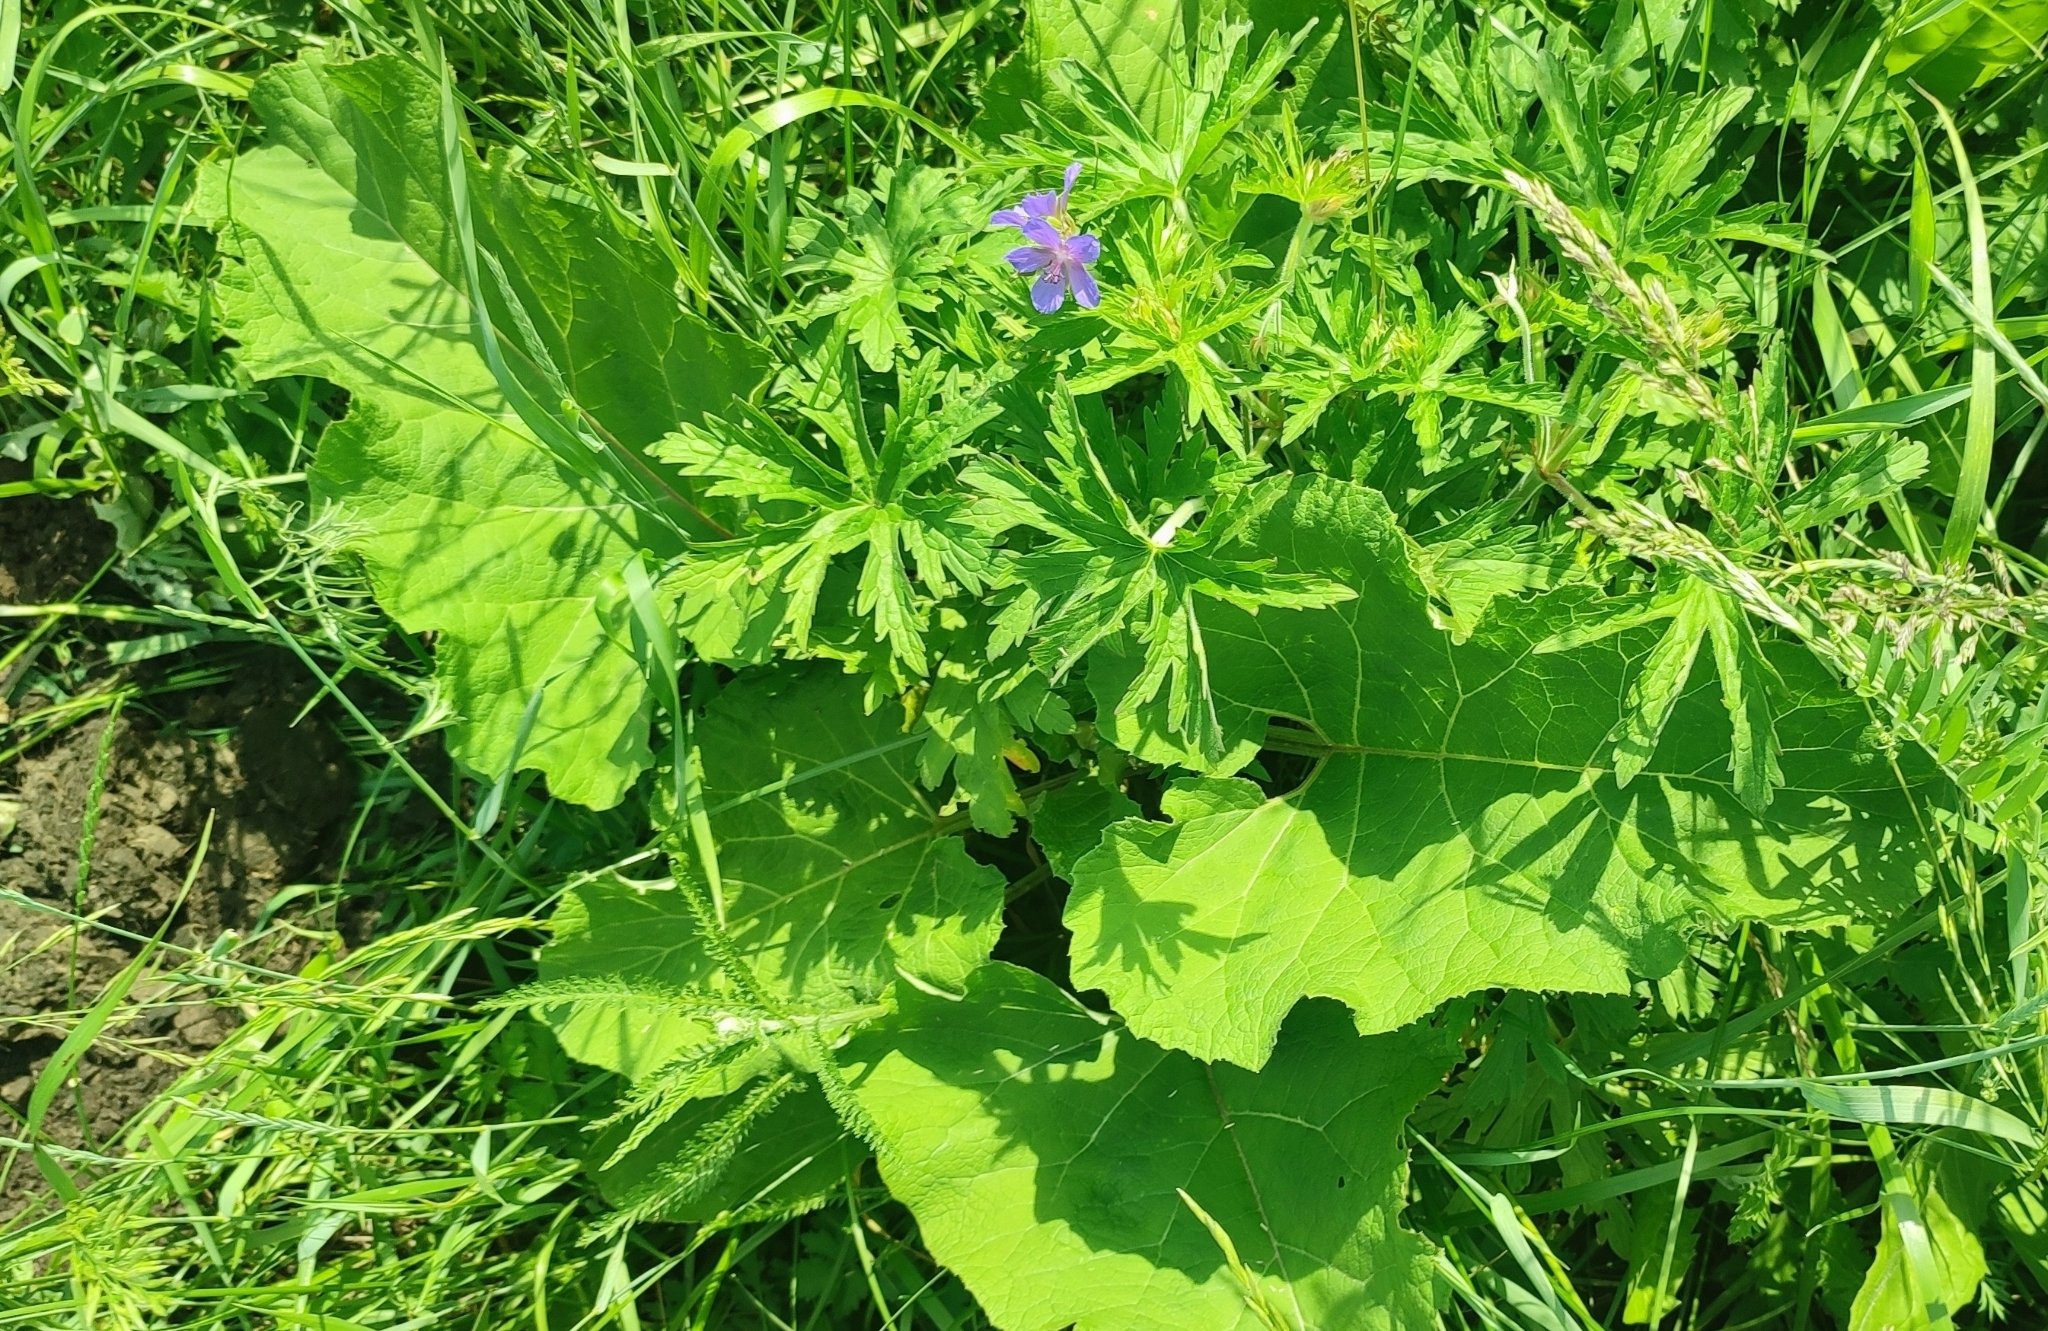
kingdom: Plantae
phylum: Tracheophyta
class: Magnoliopsida
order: Asterales
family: Asteraceae
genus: Arctium
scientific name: Arctium tomentosum
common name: Woolly burdock
